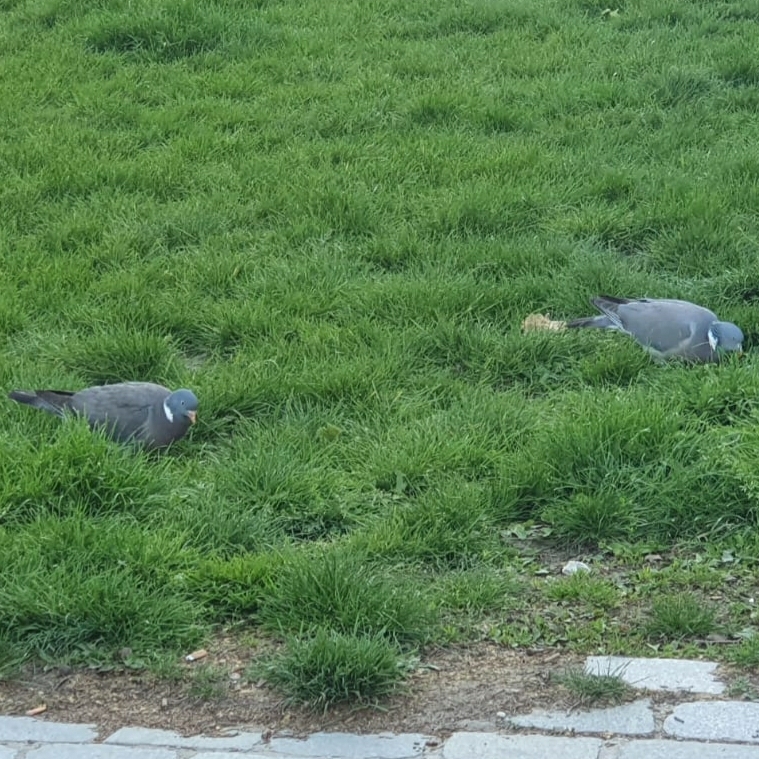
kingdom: Animalia
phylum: Chordata
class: Aves
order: Columbiformes
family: Columbidae
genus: Columba
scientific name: Columba palumbus
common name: Common wood pigeon
